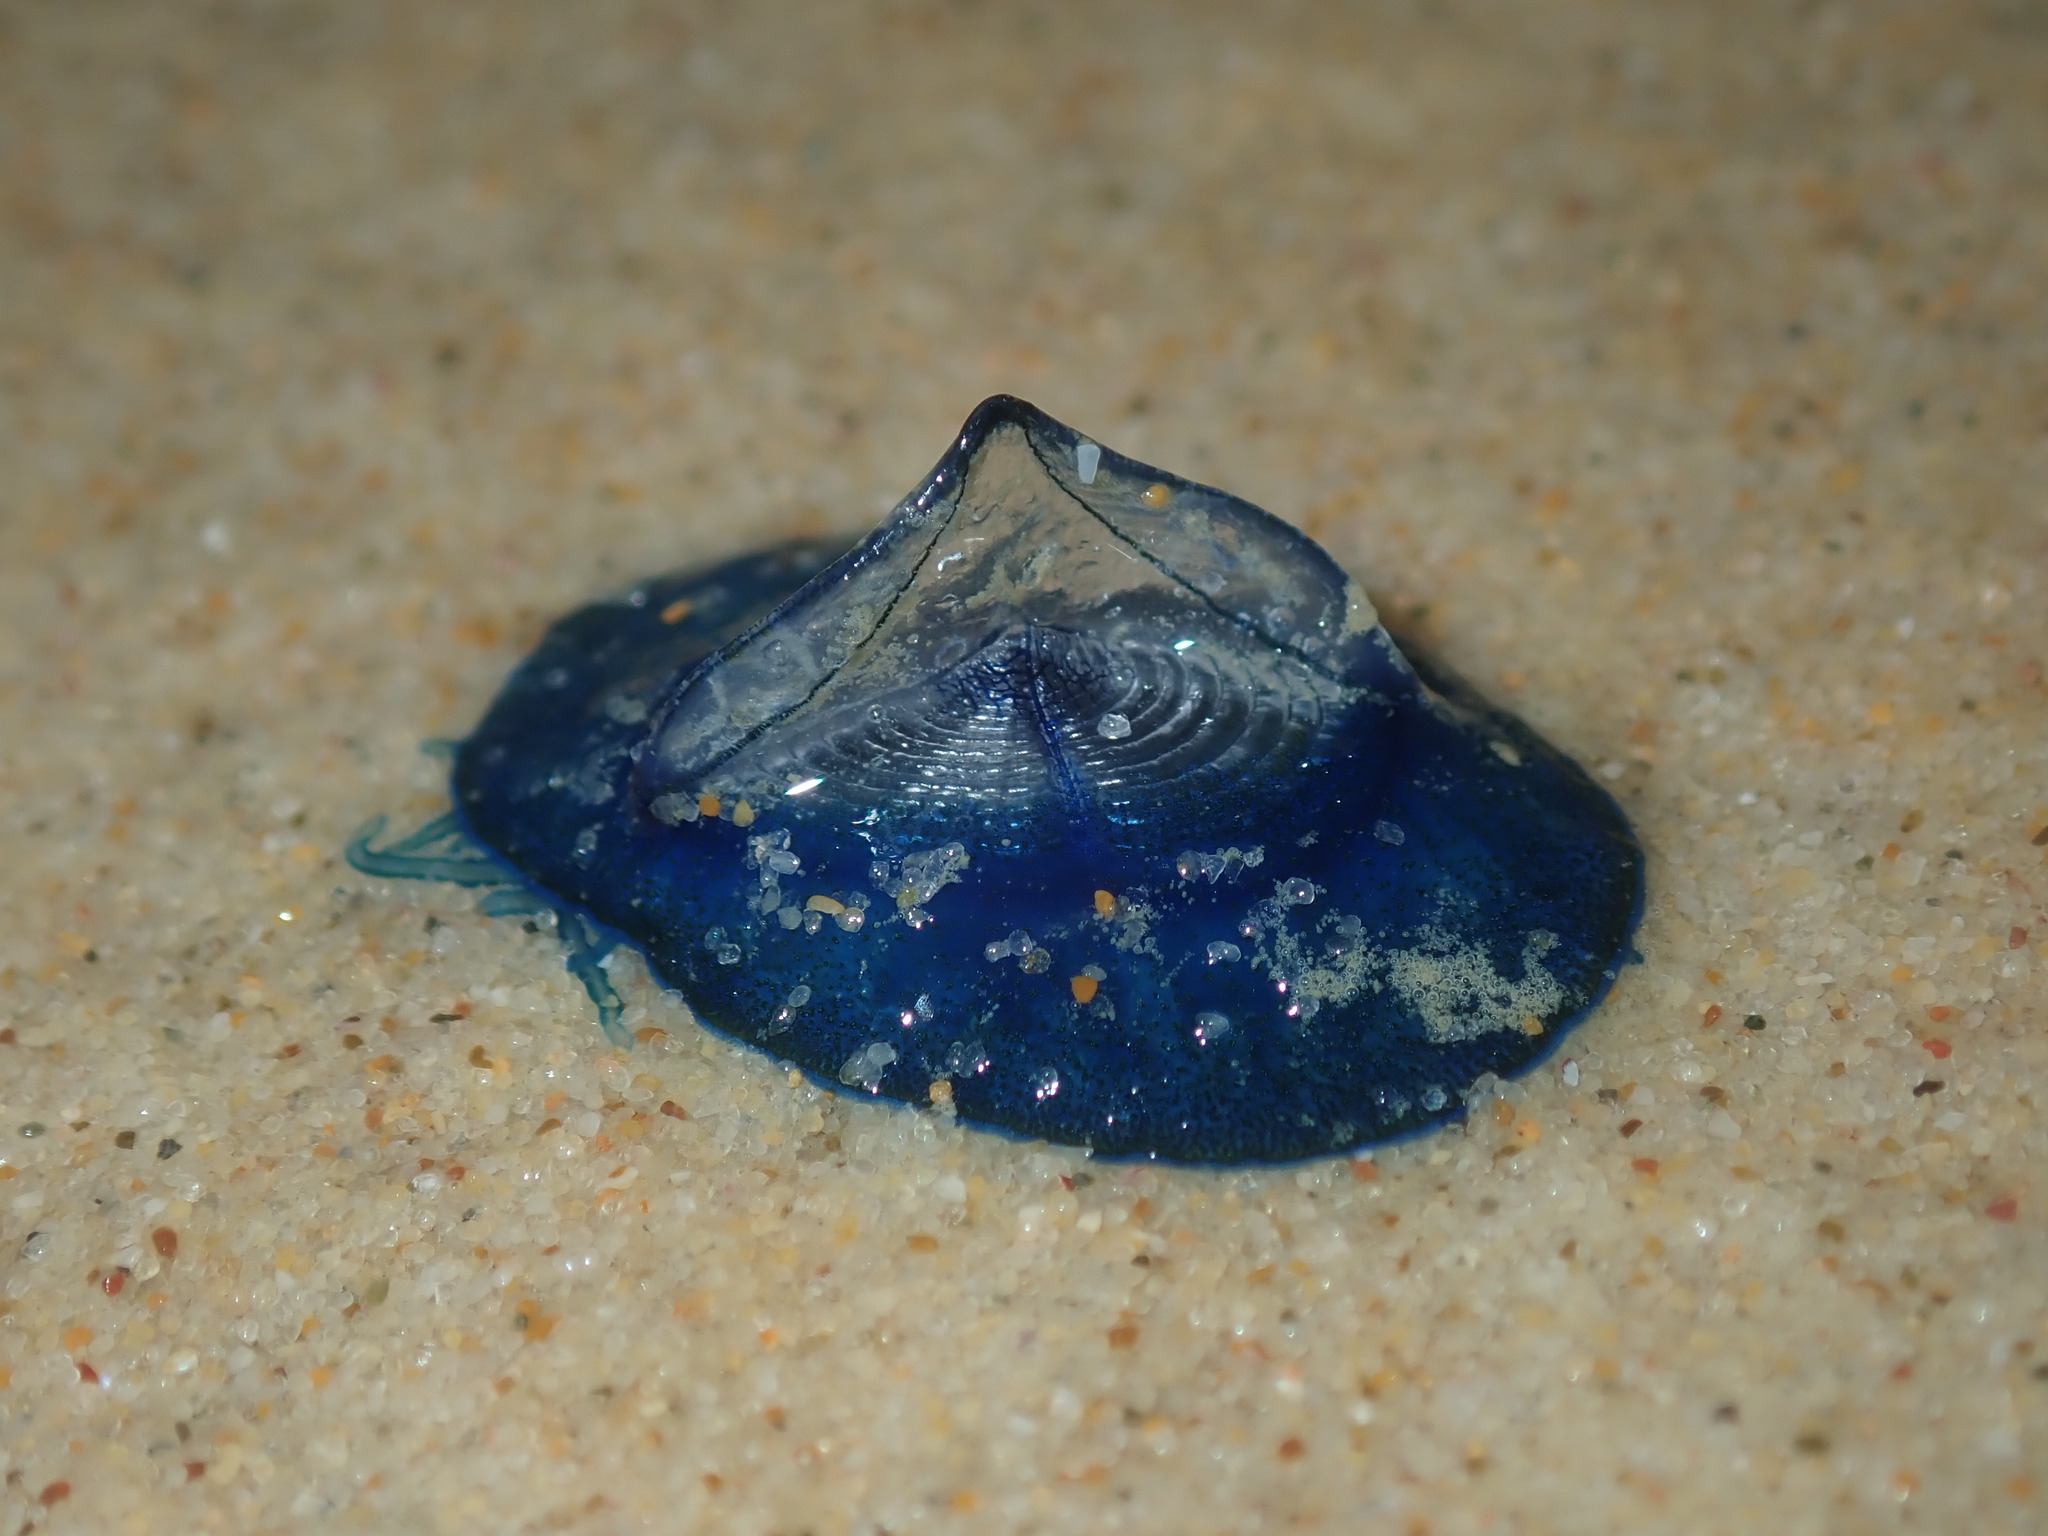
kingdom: Animalia
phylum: Cnidaria
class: Hydrozoa
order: Anthoathecata
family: Porpitidae
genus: Velella
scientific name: Velella velella
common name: By-the-wind-sailor
